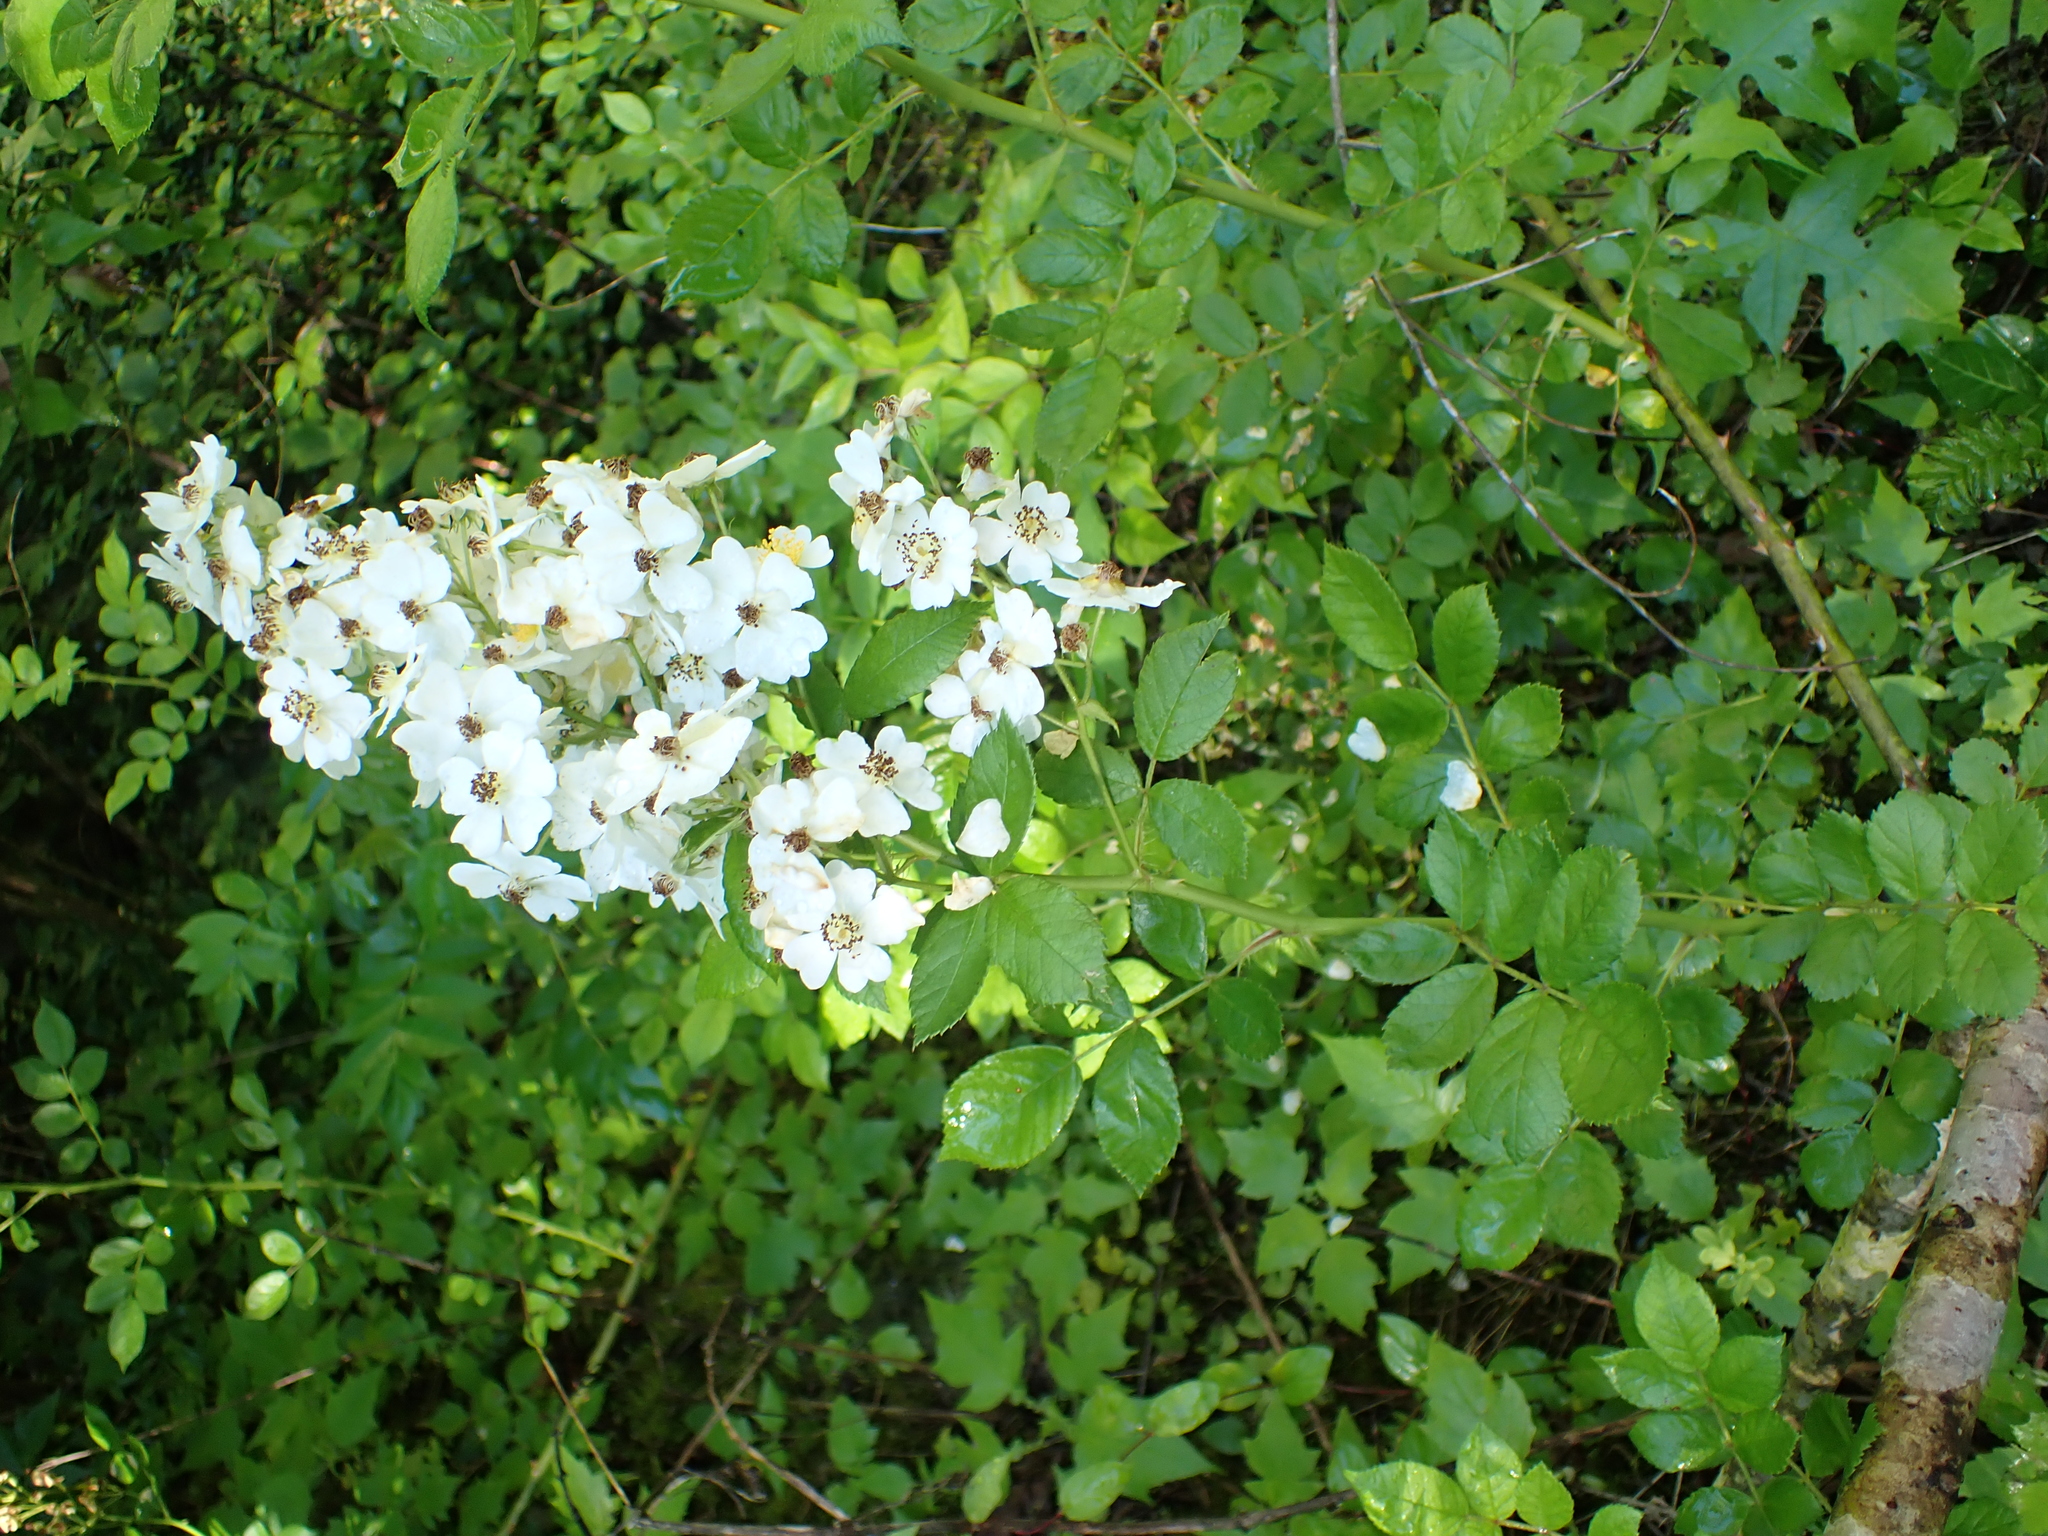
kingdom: Plantae
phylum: Tracheophyta
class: Magnoliopsida
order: Rosales
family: Rosaceae
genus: Rosa
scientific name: Rosa multiflora
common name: Multiflora rose
